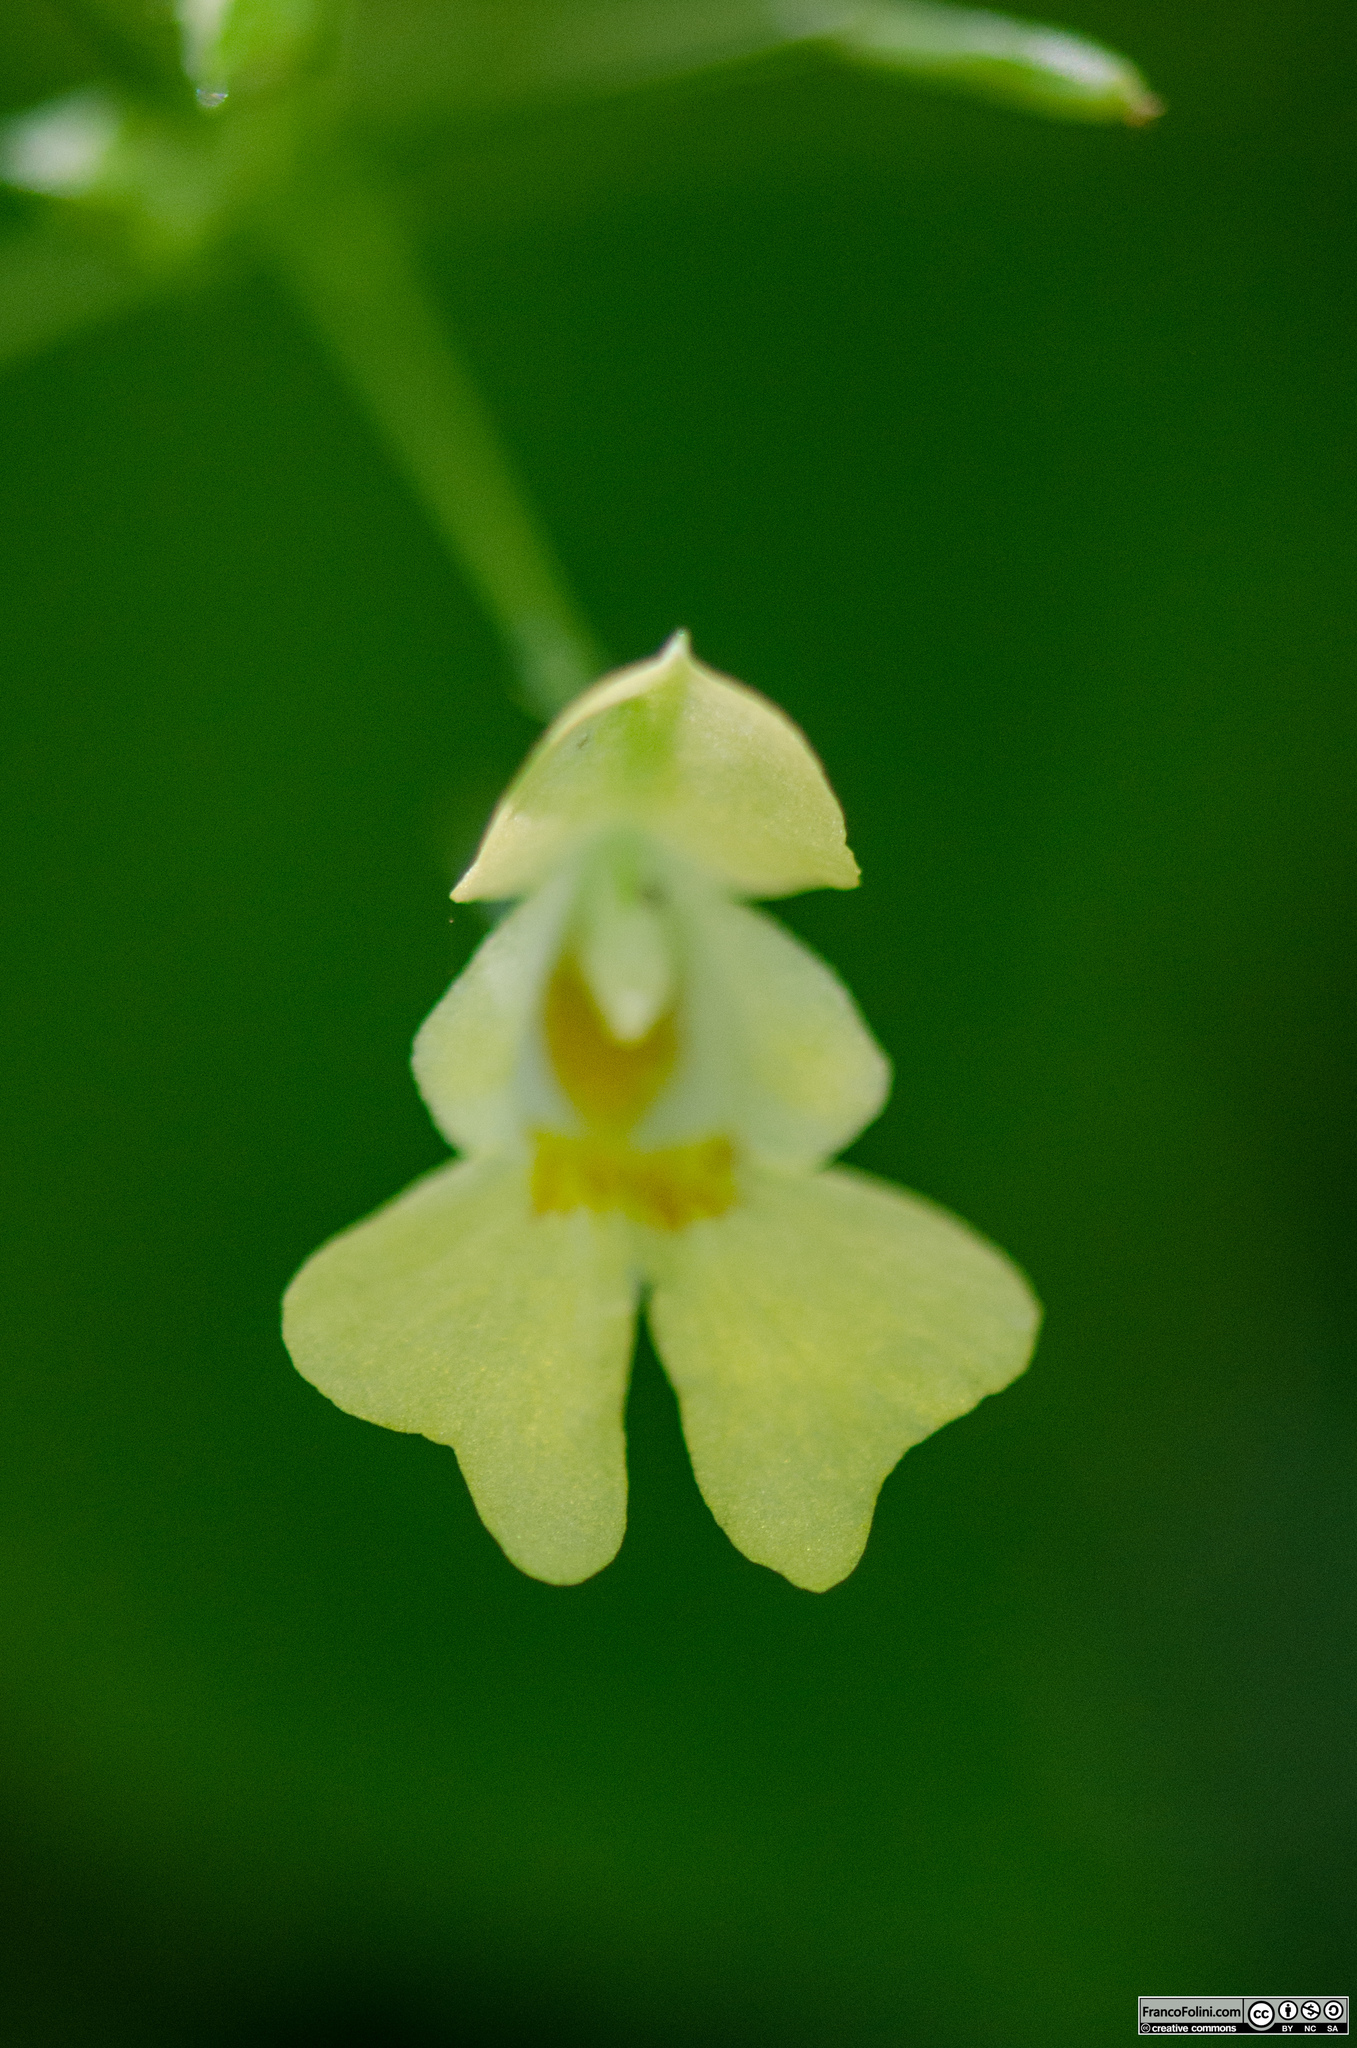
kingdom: Plantae
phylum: Tracheophyta
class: Magnoliopsida
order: Ericales
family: Balsaminaceae
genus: Impatiens
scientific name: Impatiens parviflora
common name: Small balsam
